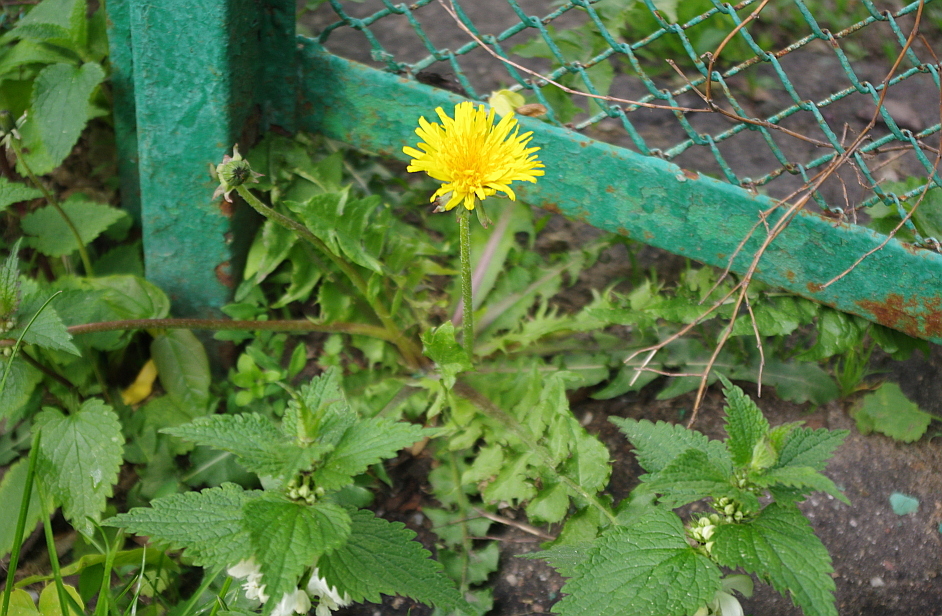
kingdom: Plantae
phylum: Tracheophyta
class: Magnoliopsida
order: Asterales
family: Asteraceae
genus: Taraxacum
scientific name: Taraxacum officinale
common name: Common dandelion
